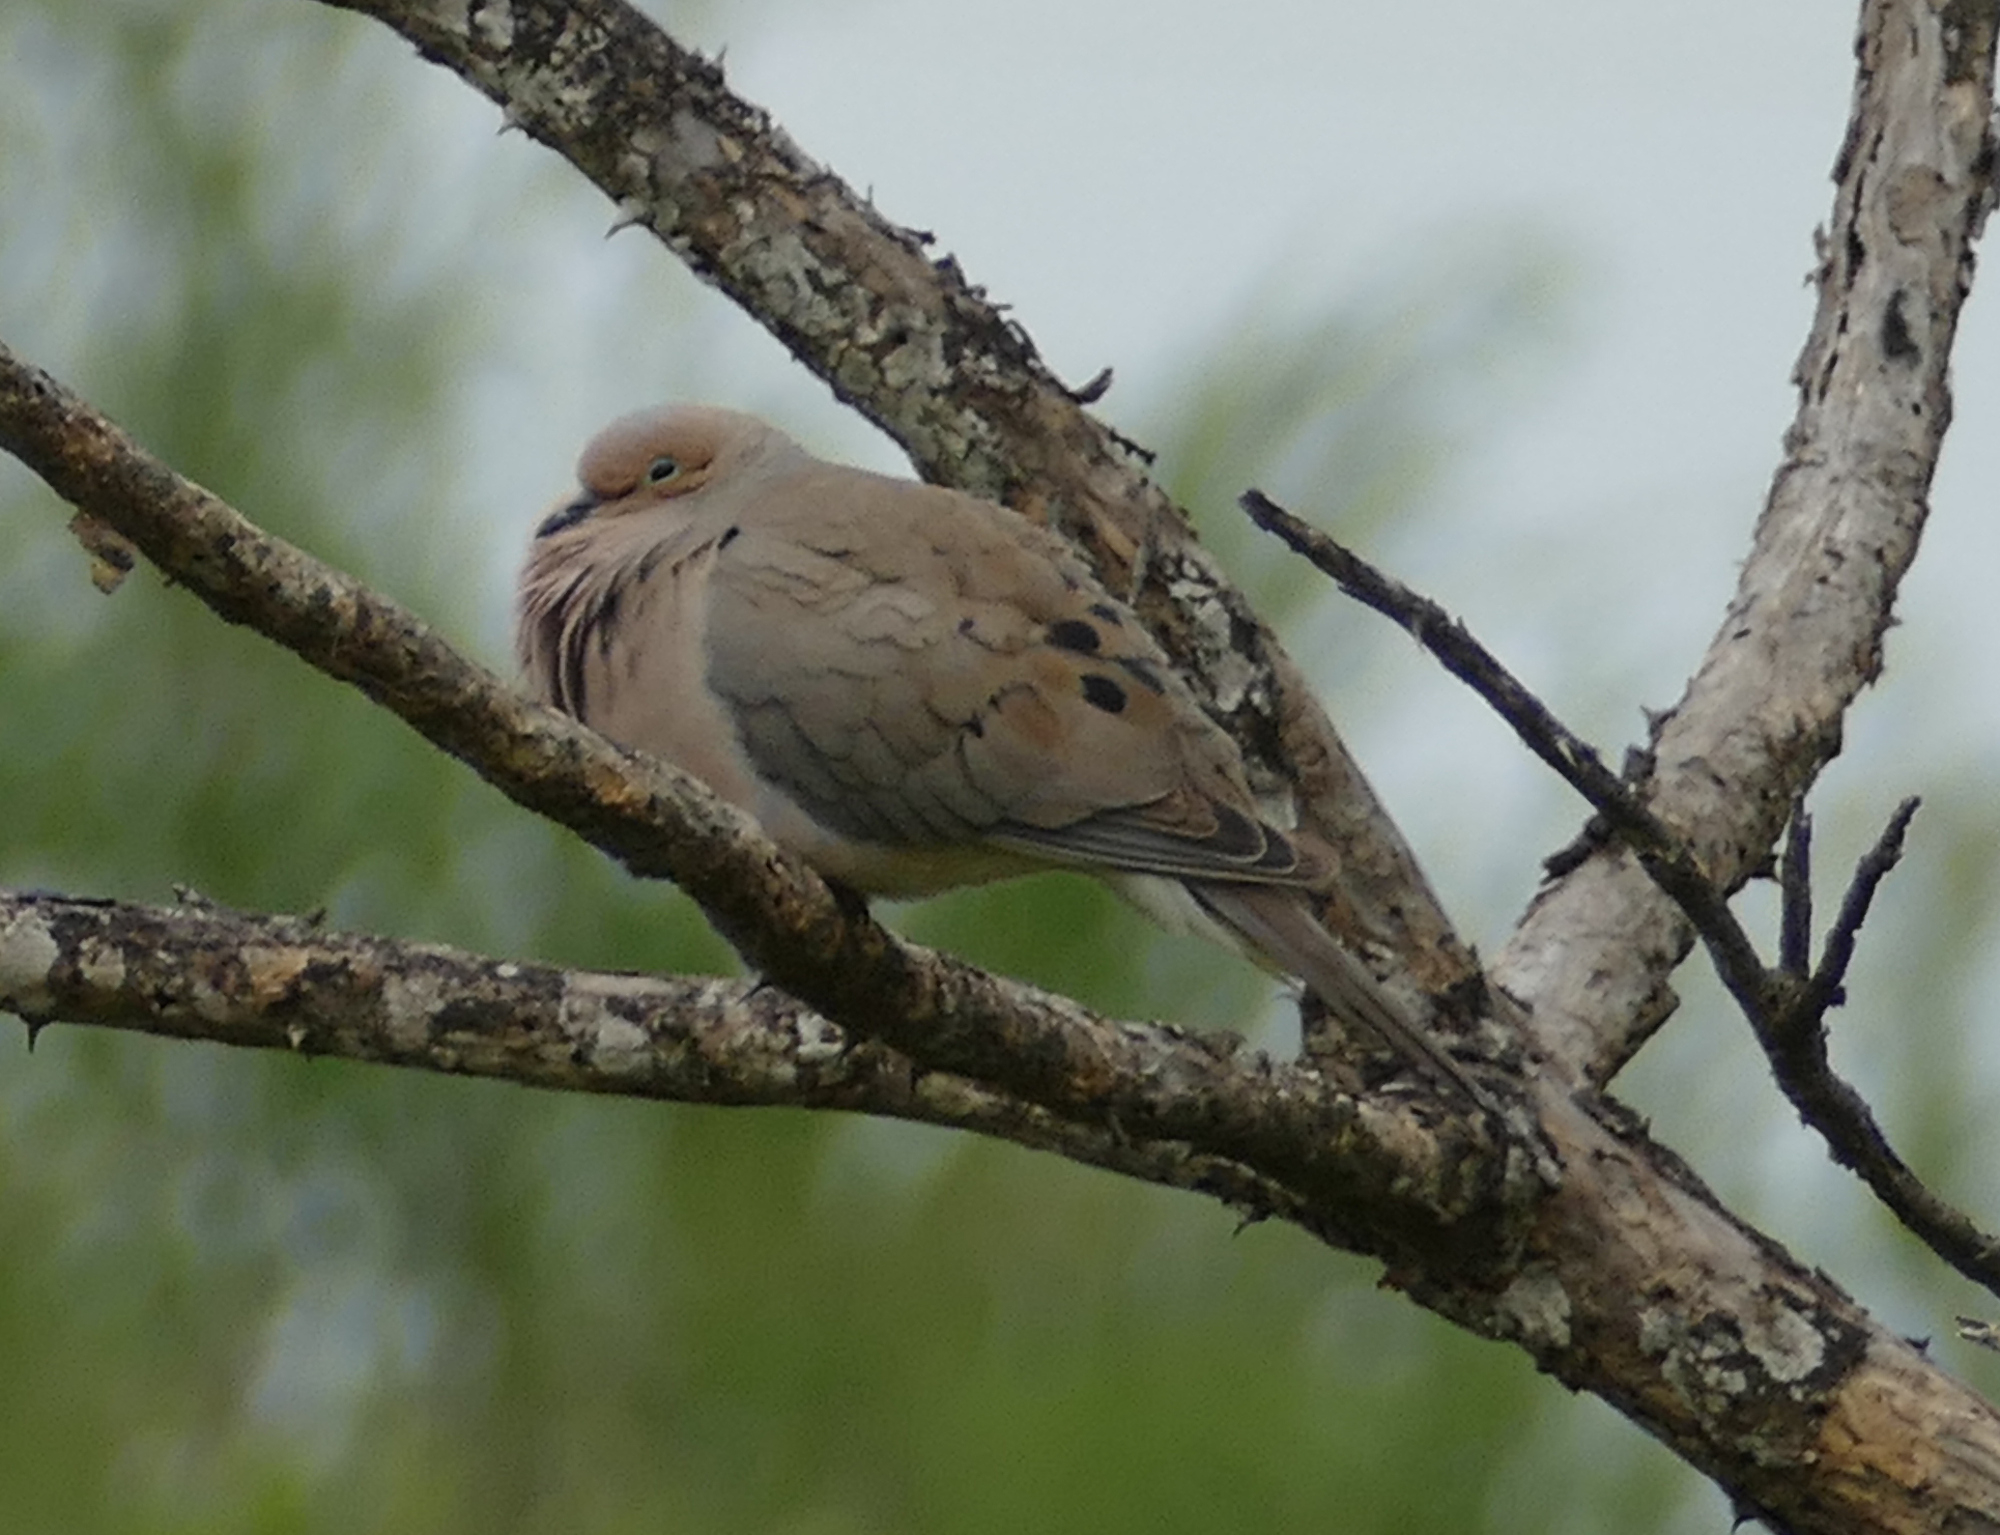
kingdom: Animalia
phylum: Chordata
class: Aves
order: Columbiformes
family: Columbidae
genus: Zenaida
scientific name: Zenaida macroura
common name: Mourning dove
